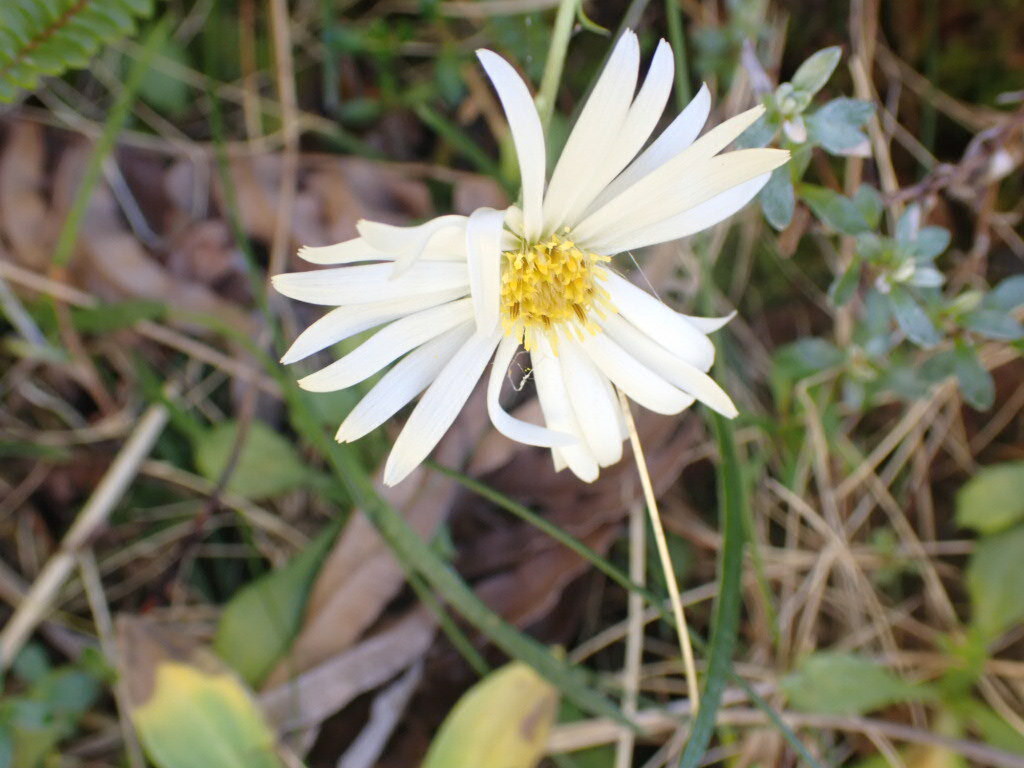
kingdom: Plantae
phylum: Tracheophyta
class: Magnoliopsida
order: Asterales
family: Asteraceae
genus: Celmisia
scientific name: Celmisia gracilenta
